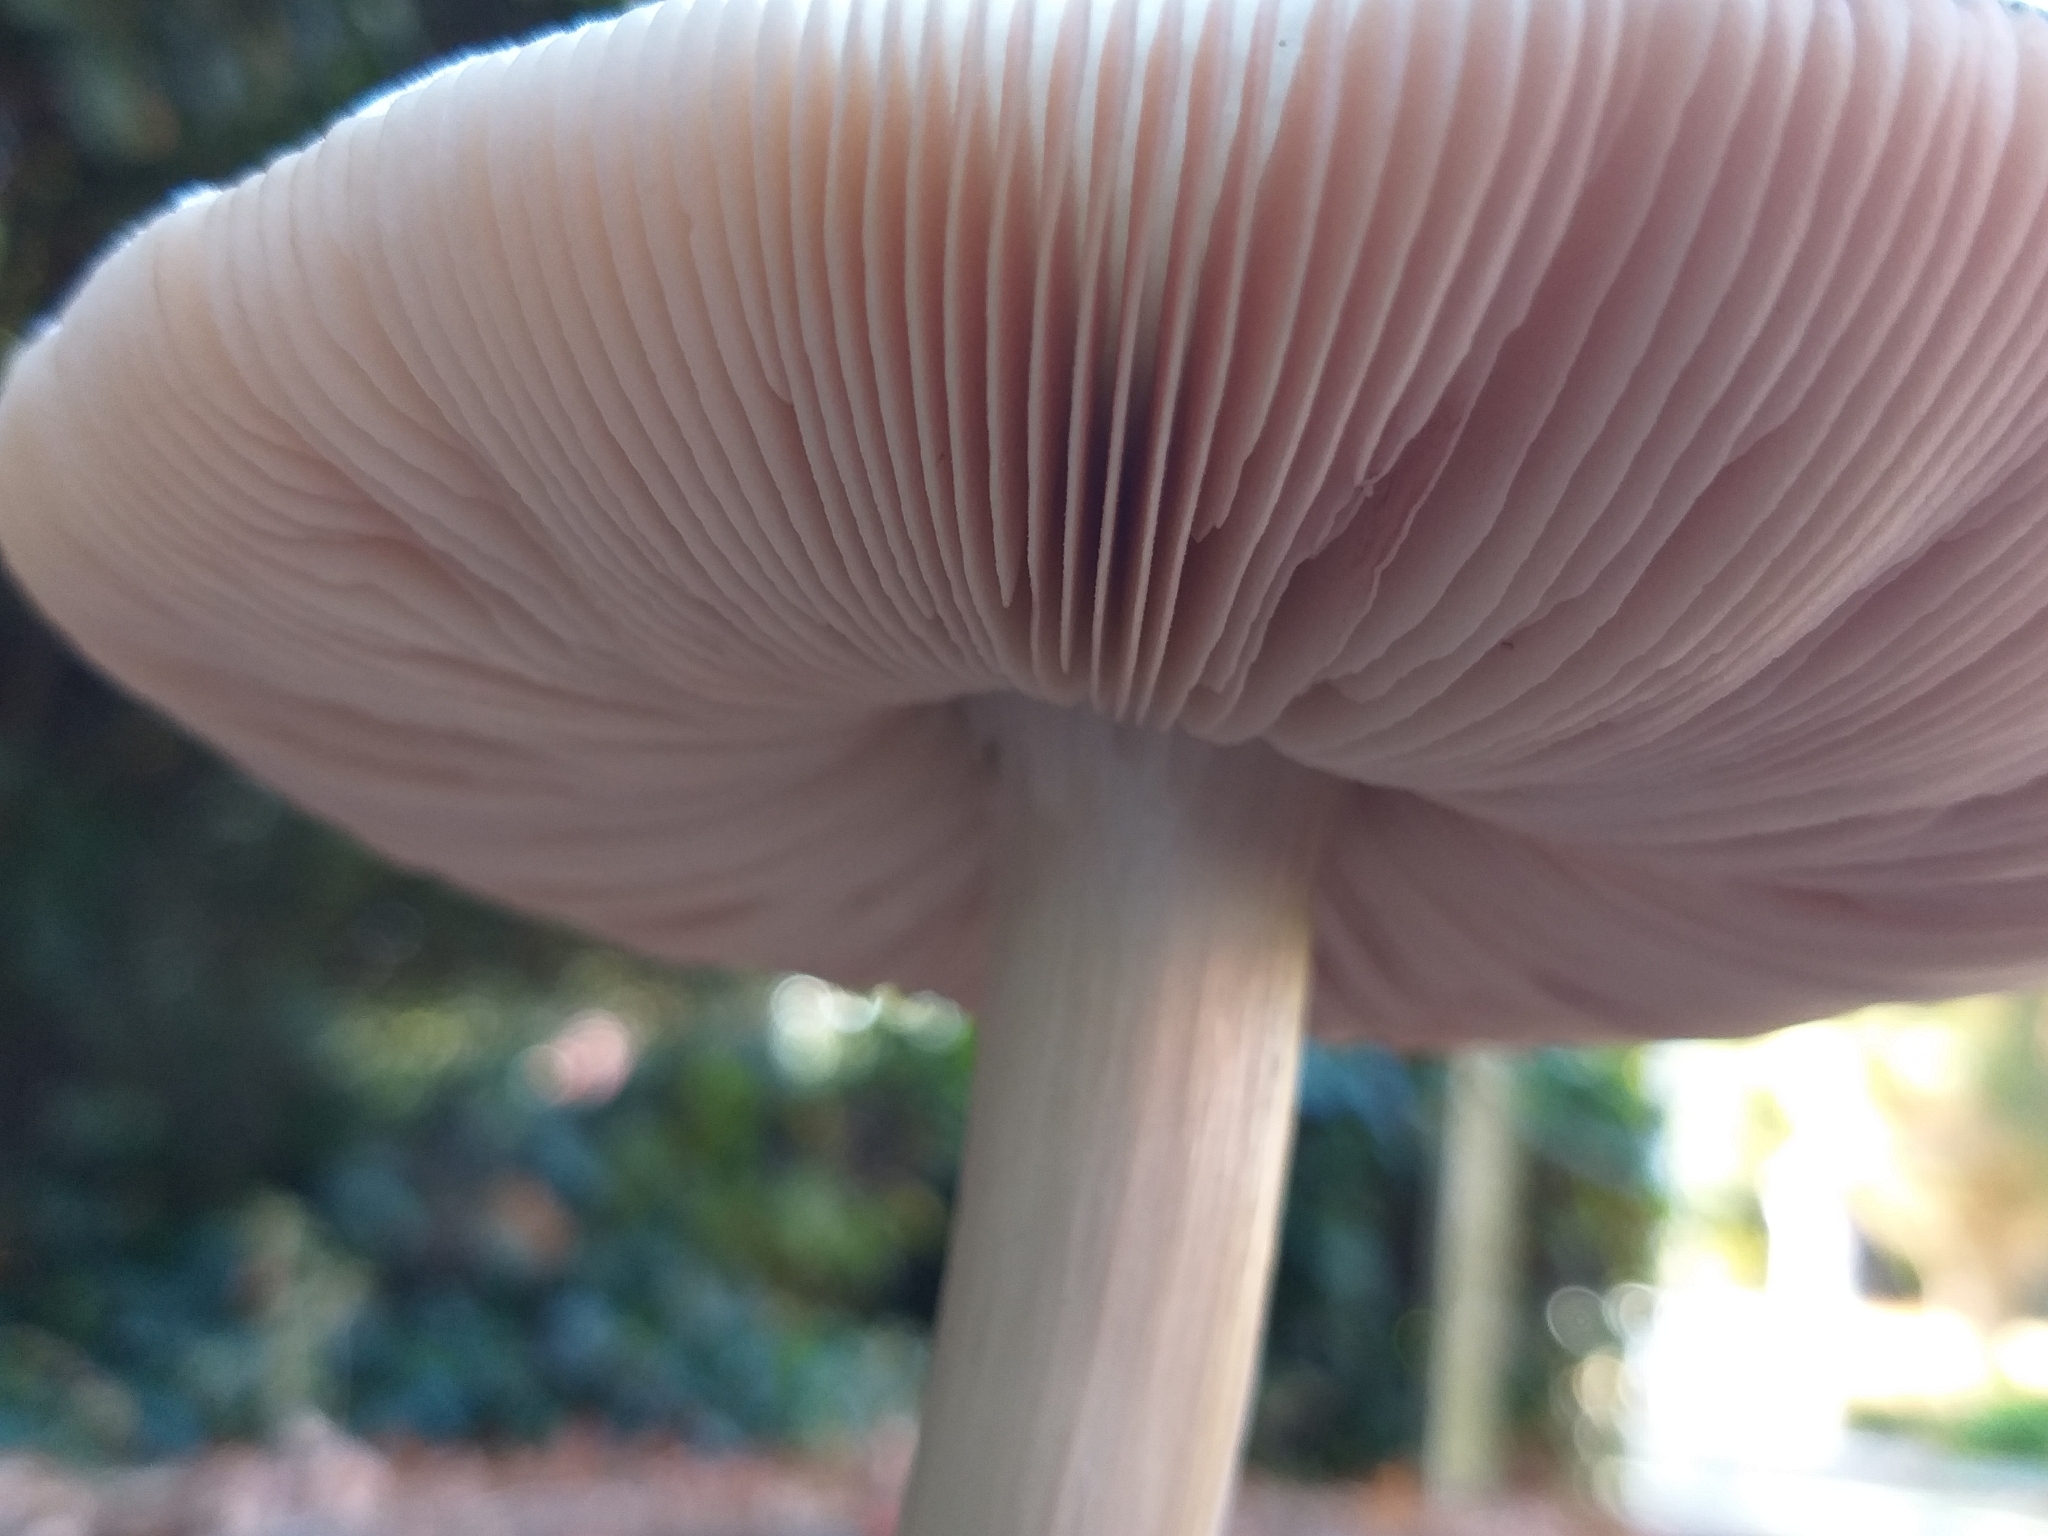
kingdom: Fungi
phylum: Basidiomycota
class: Agaricomycetes
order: Agaricales
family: Pluteaceae
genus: Volvopluteus
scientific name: Volvopluteus gloiocephalus
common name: Stubble rosegill
